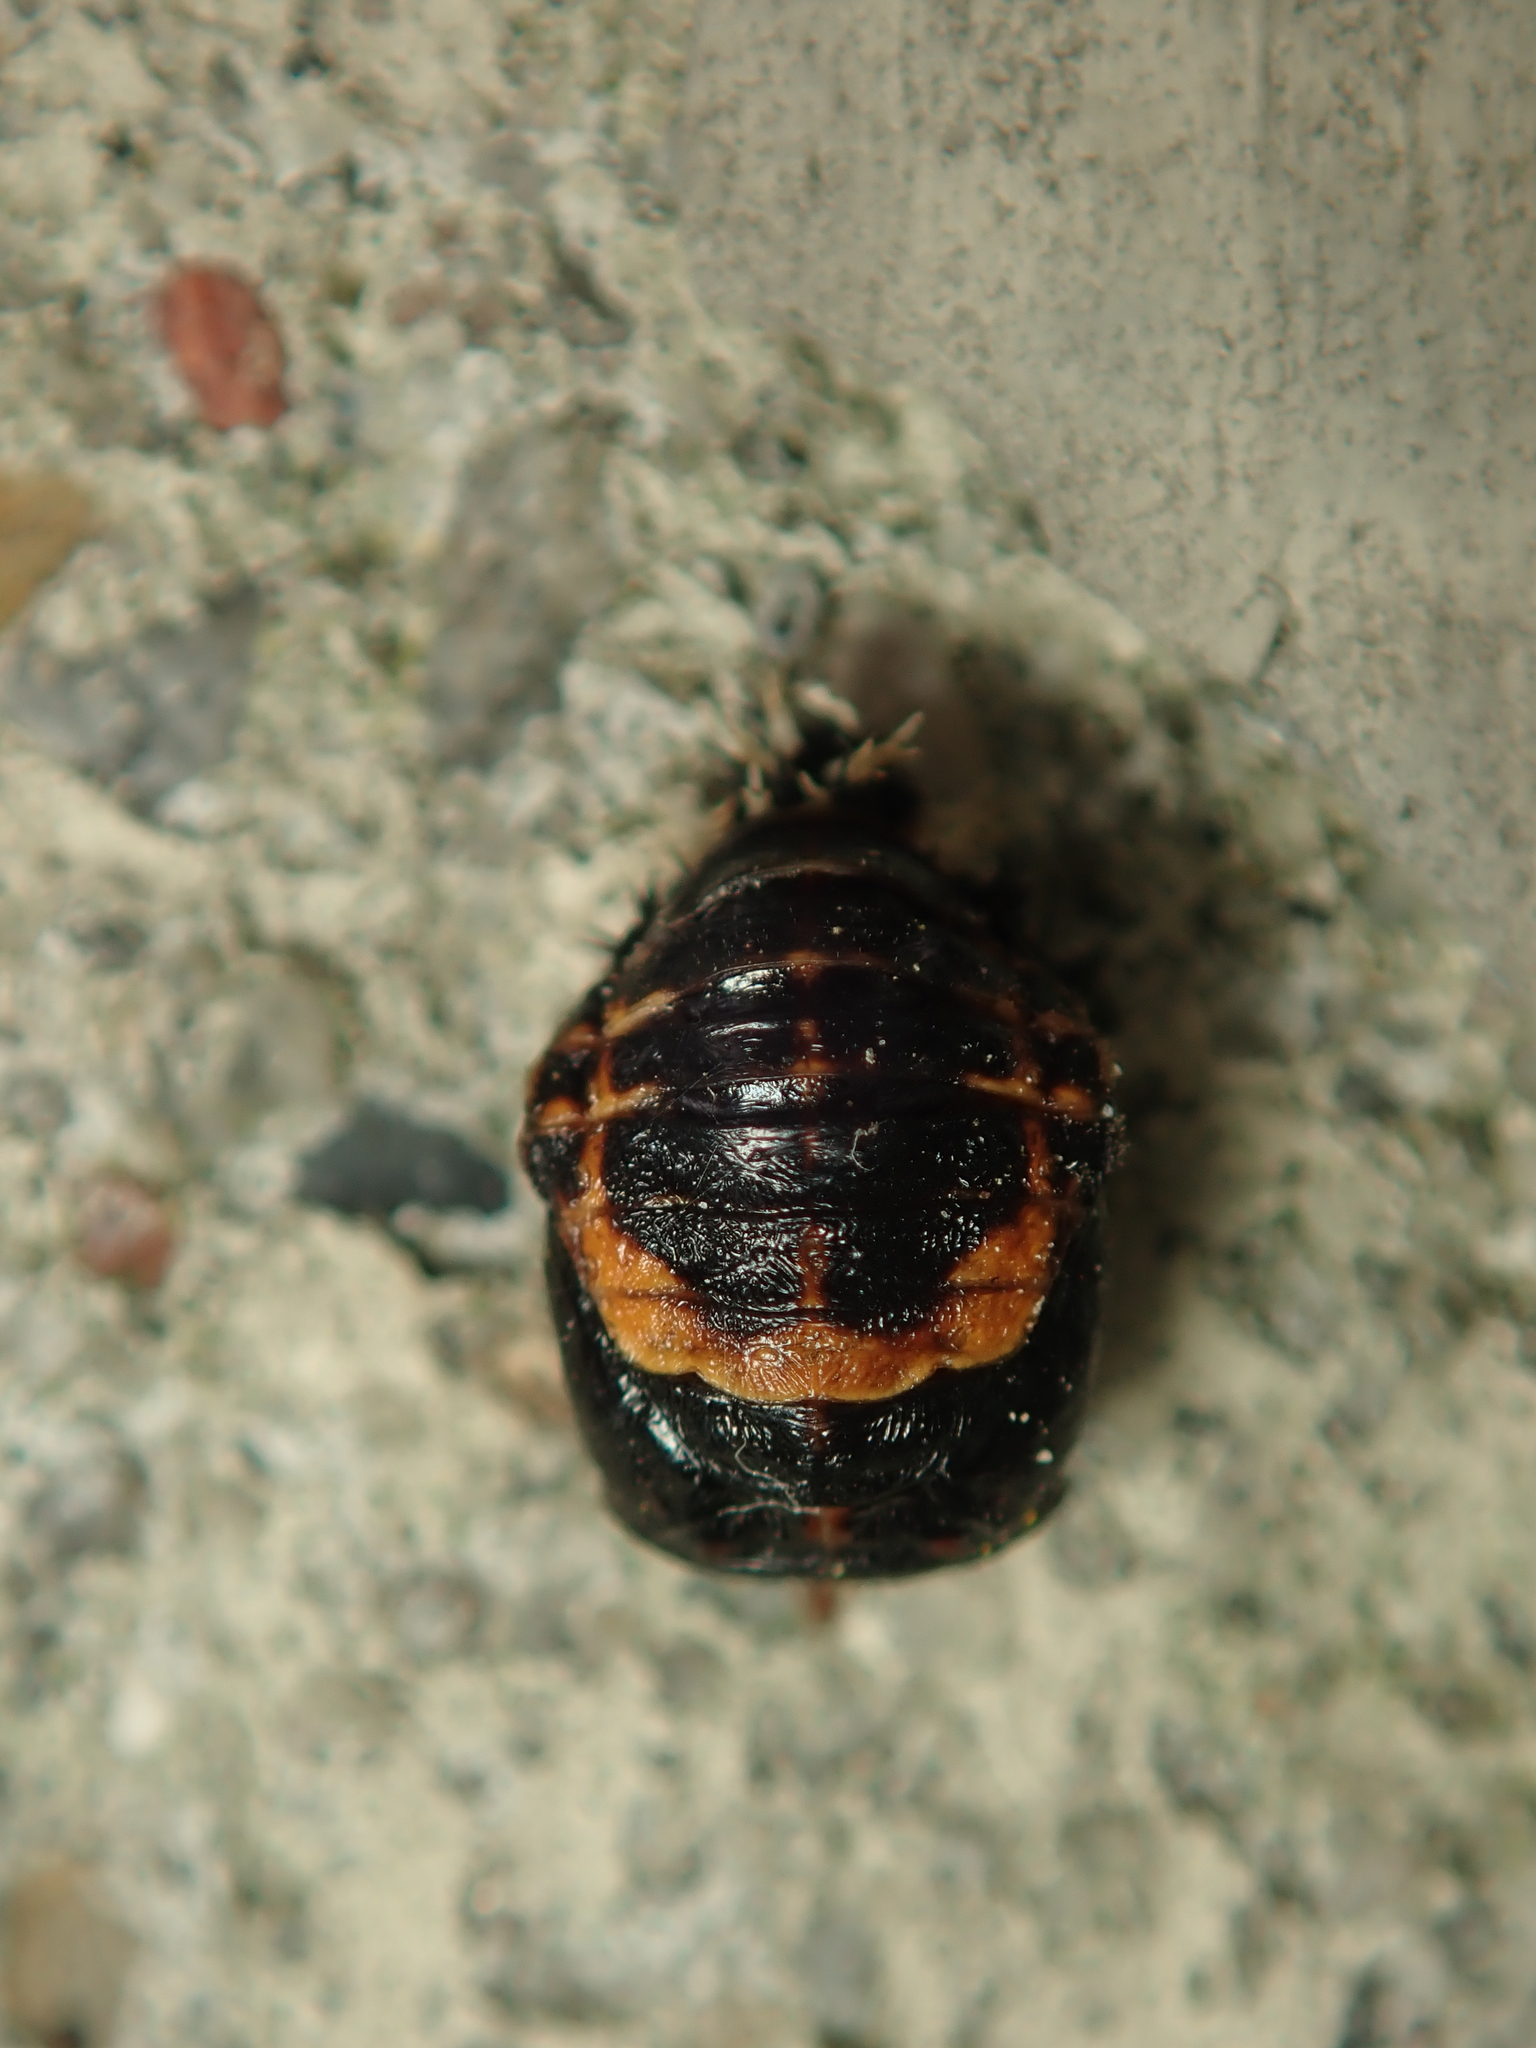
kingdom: Animalia
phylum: Arthropoda
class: Insecta
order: Coleoptera
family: Coccinellidae
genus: Harmonia
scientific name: Harmonia axyridis
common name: Harlequin ladybird
